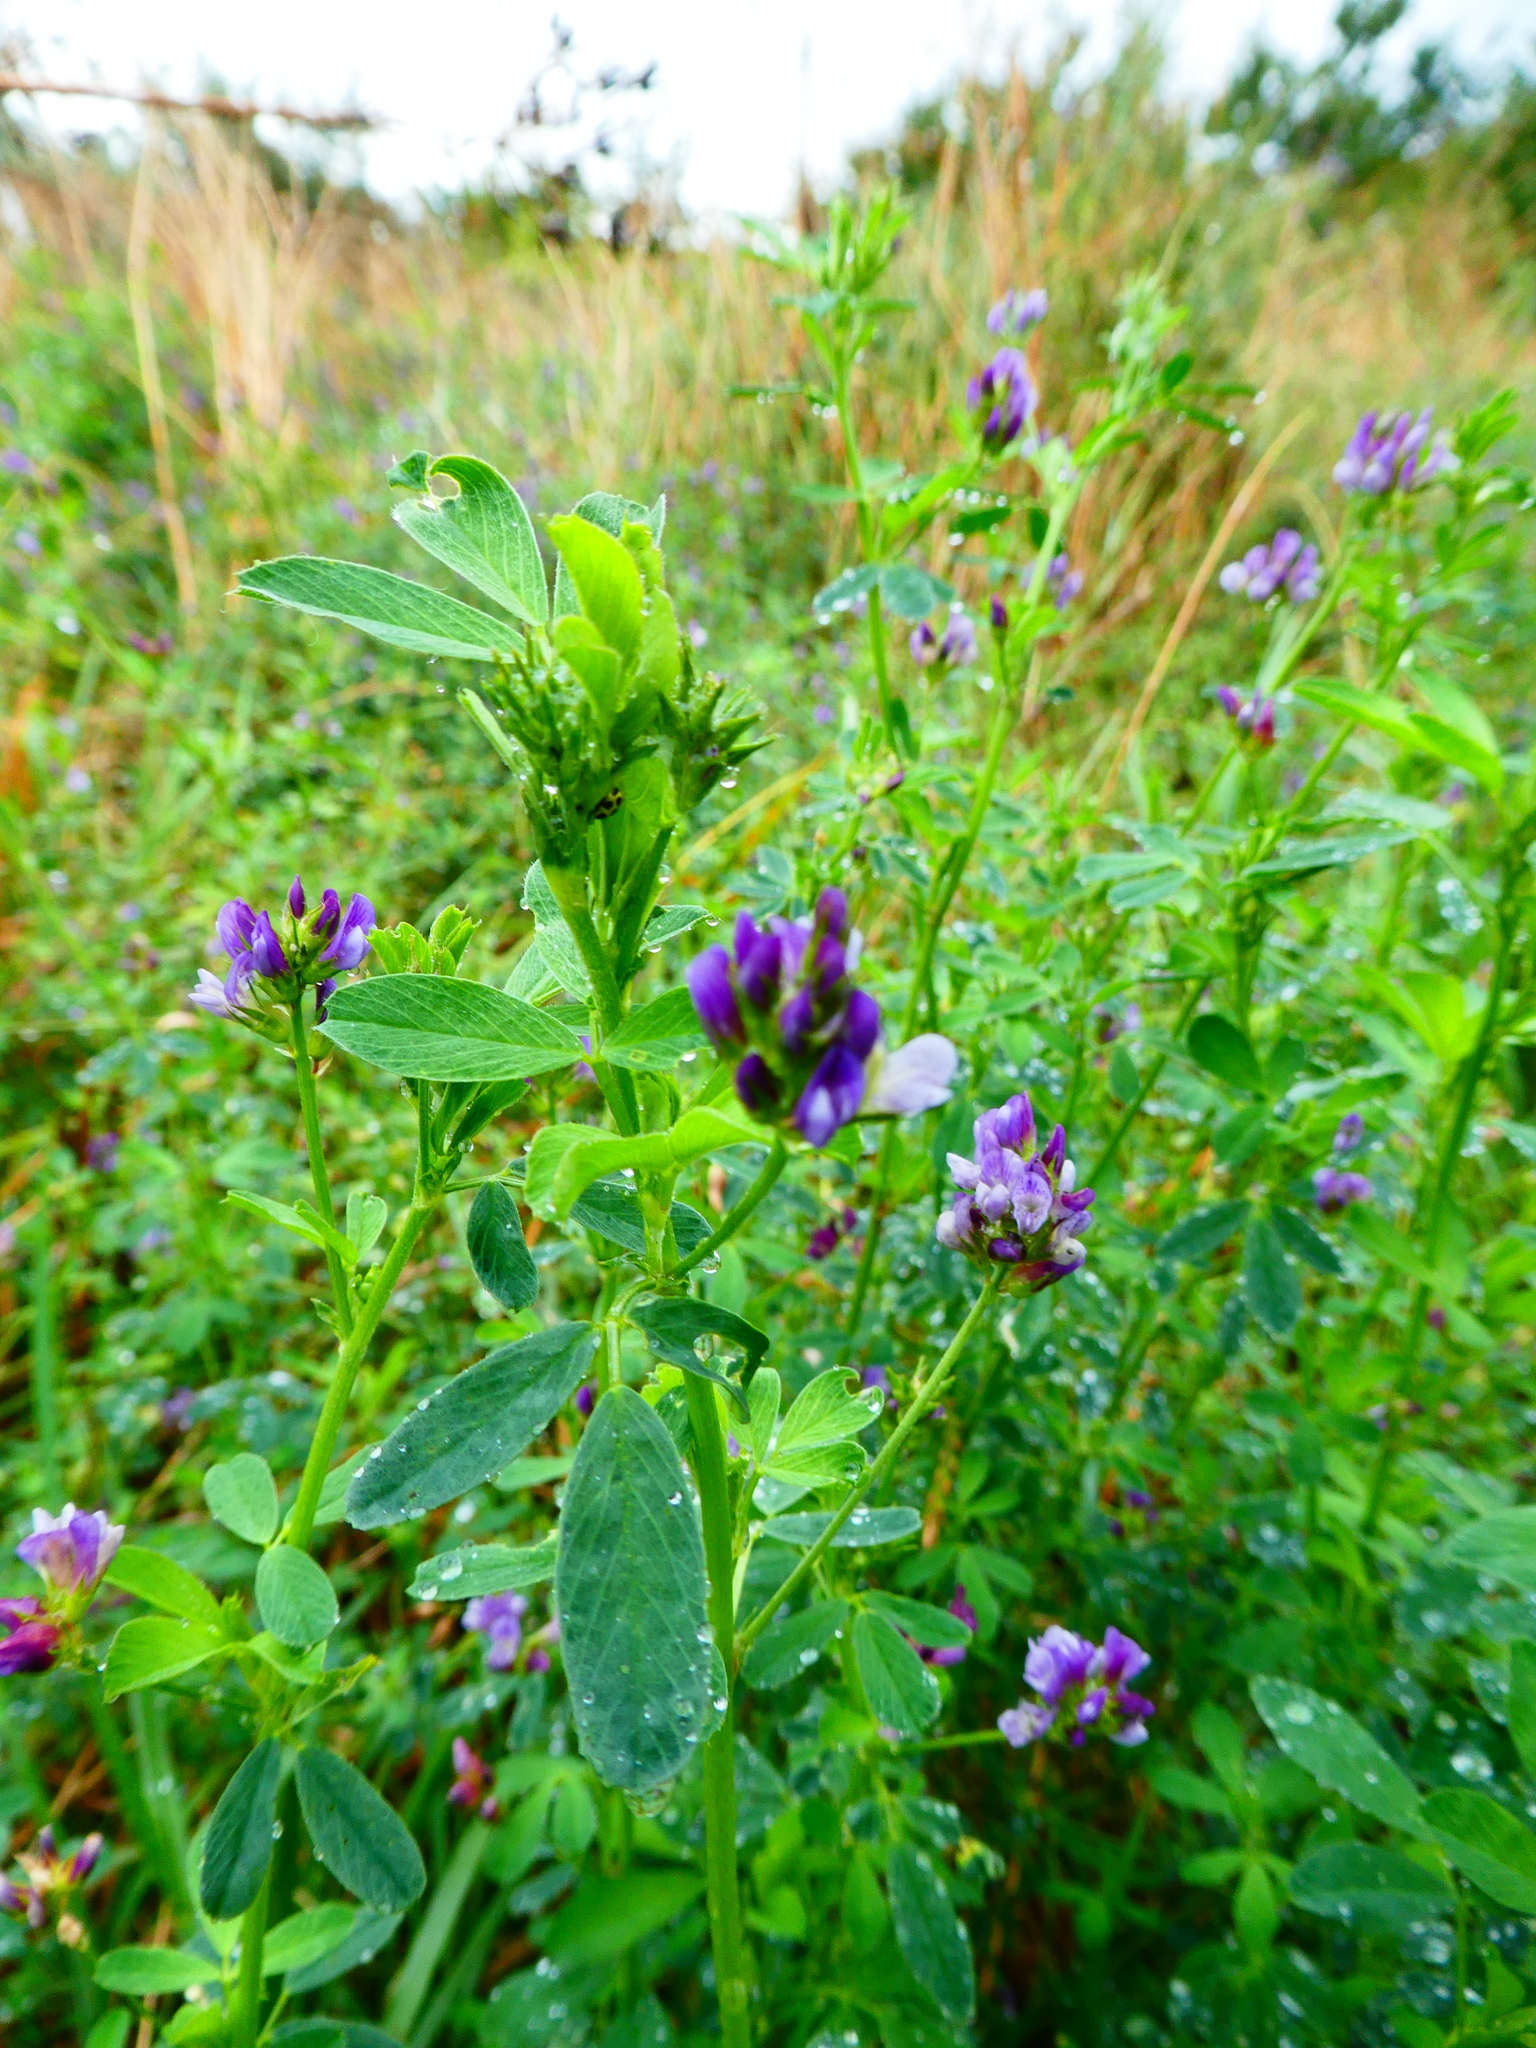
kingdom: Plantae
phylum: Tracheophyta
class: Magnoliopsida
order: Fabales
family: Fabaceae
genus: Medicago
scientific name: Medicago sativa
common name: Alfalfa
